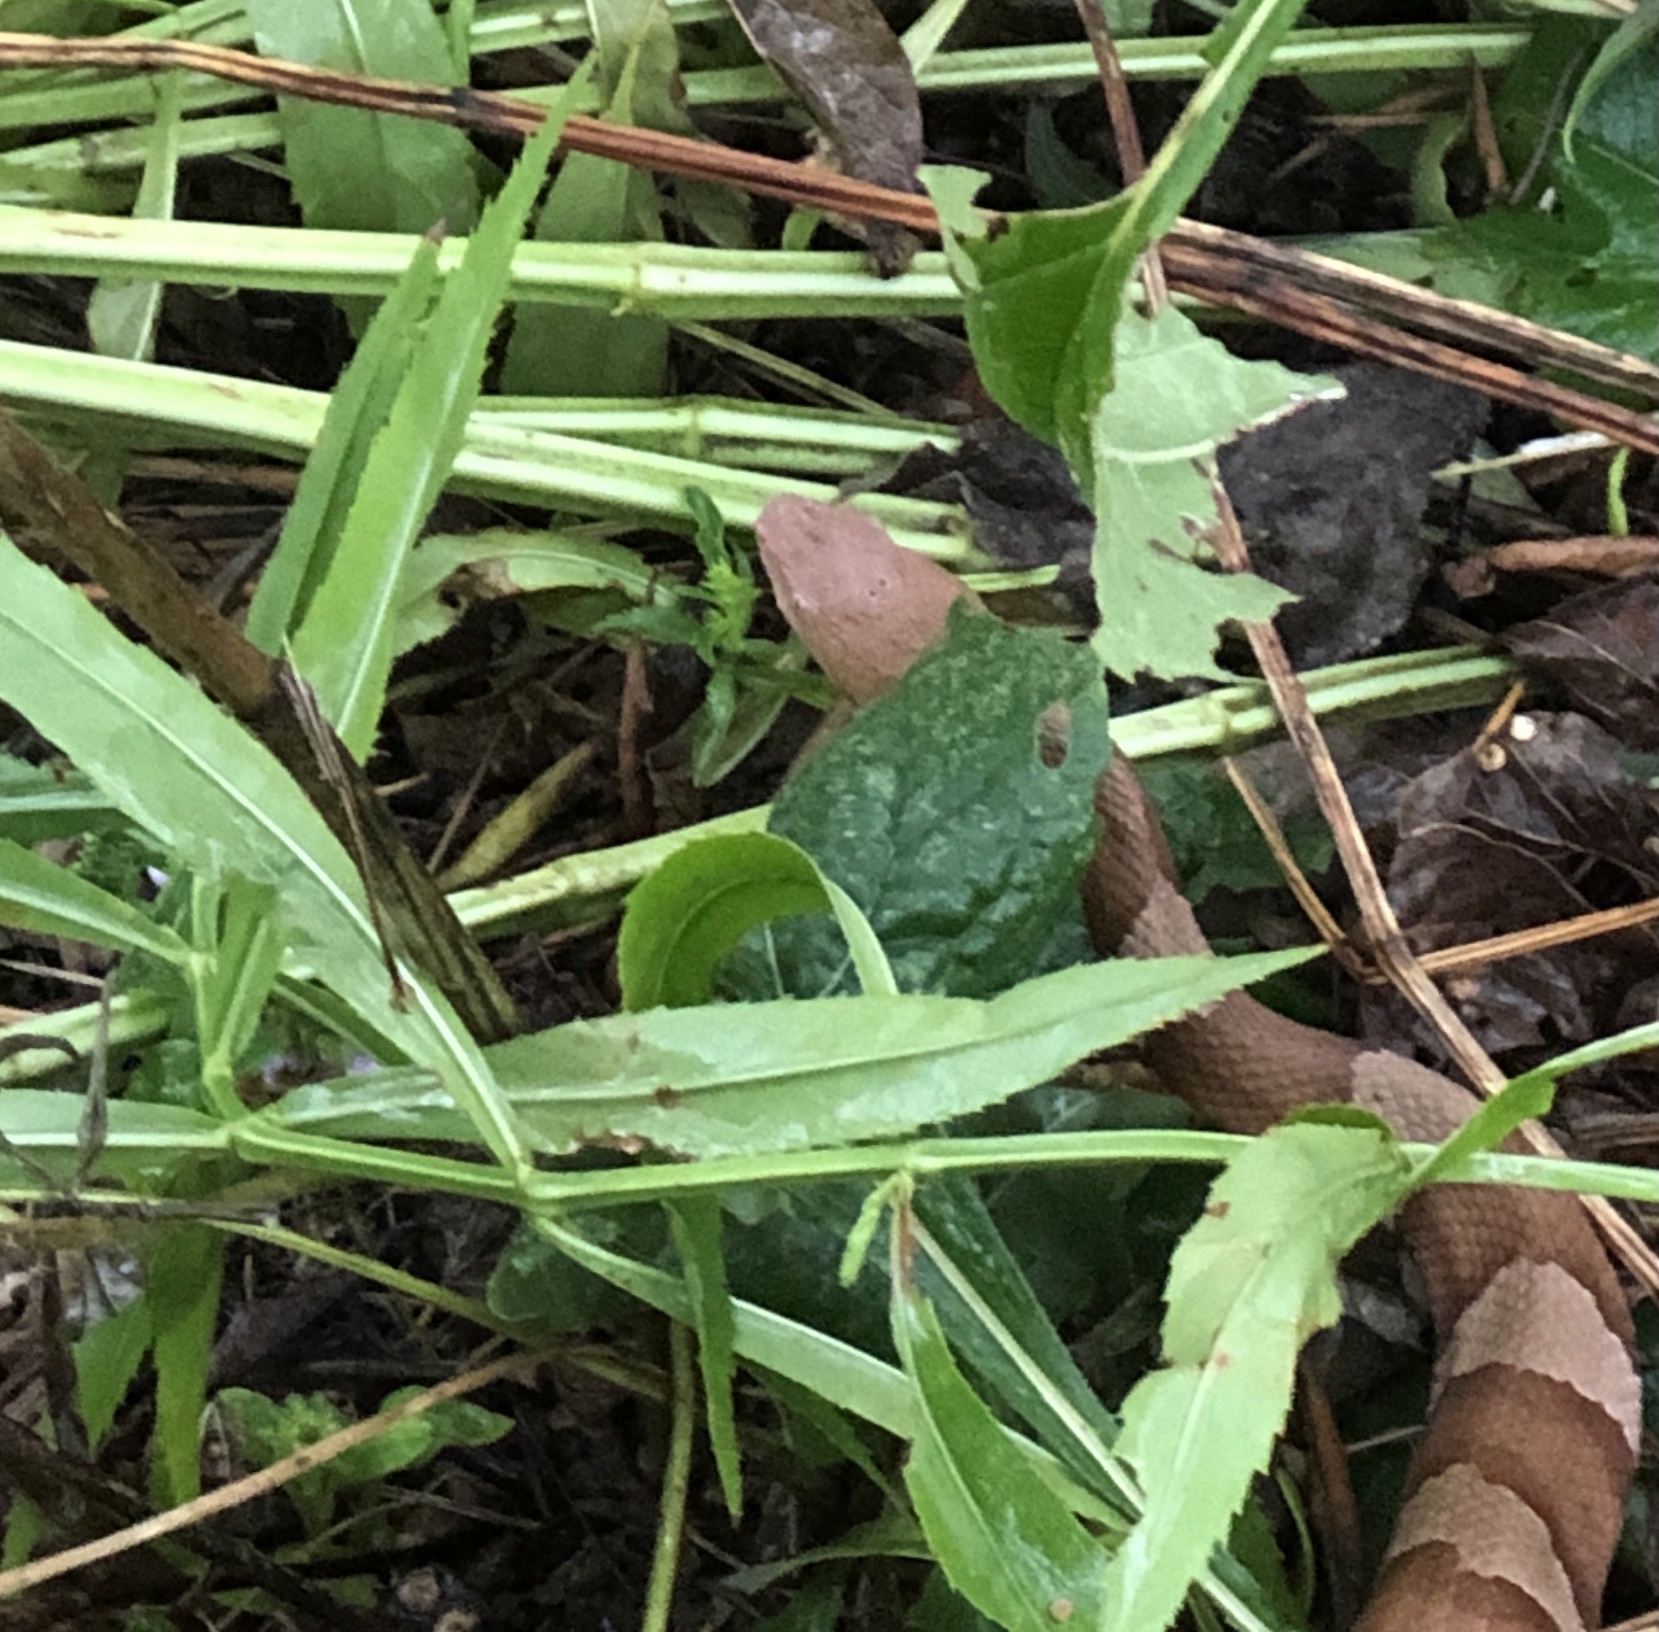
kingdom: Animalia
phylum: Chordata
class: Squamata
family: Viperidae
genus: Agkistrodon
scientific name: Agkistrodon laticinctus
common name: Broad-banded copperhead
